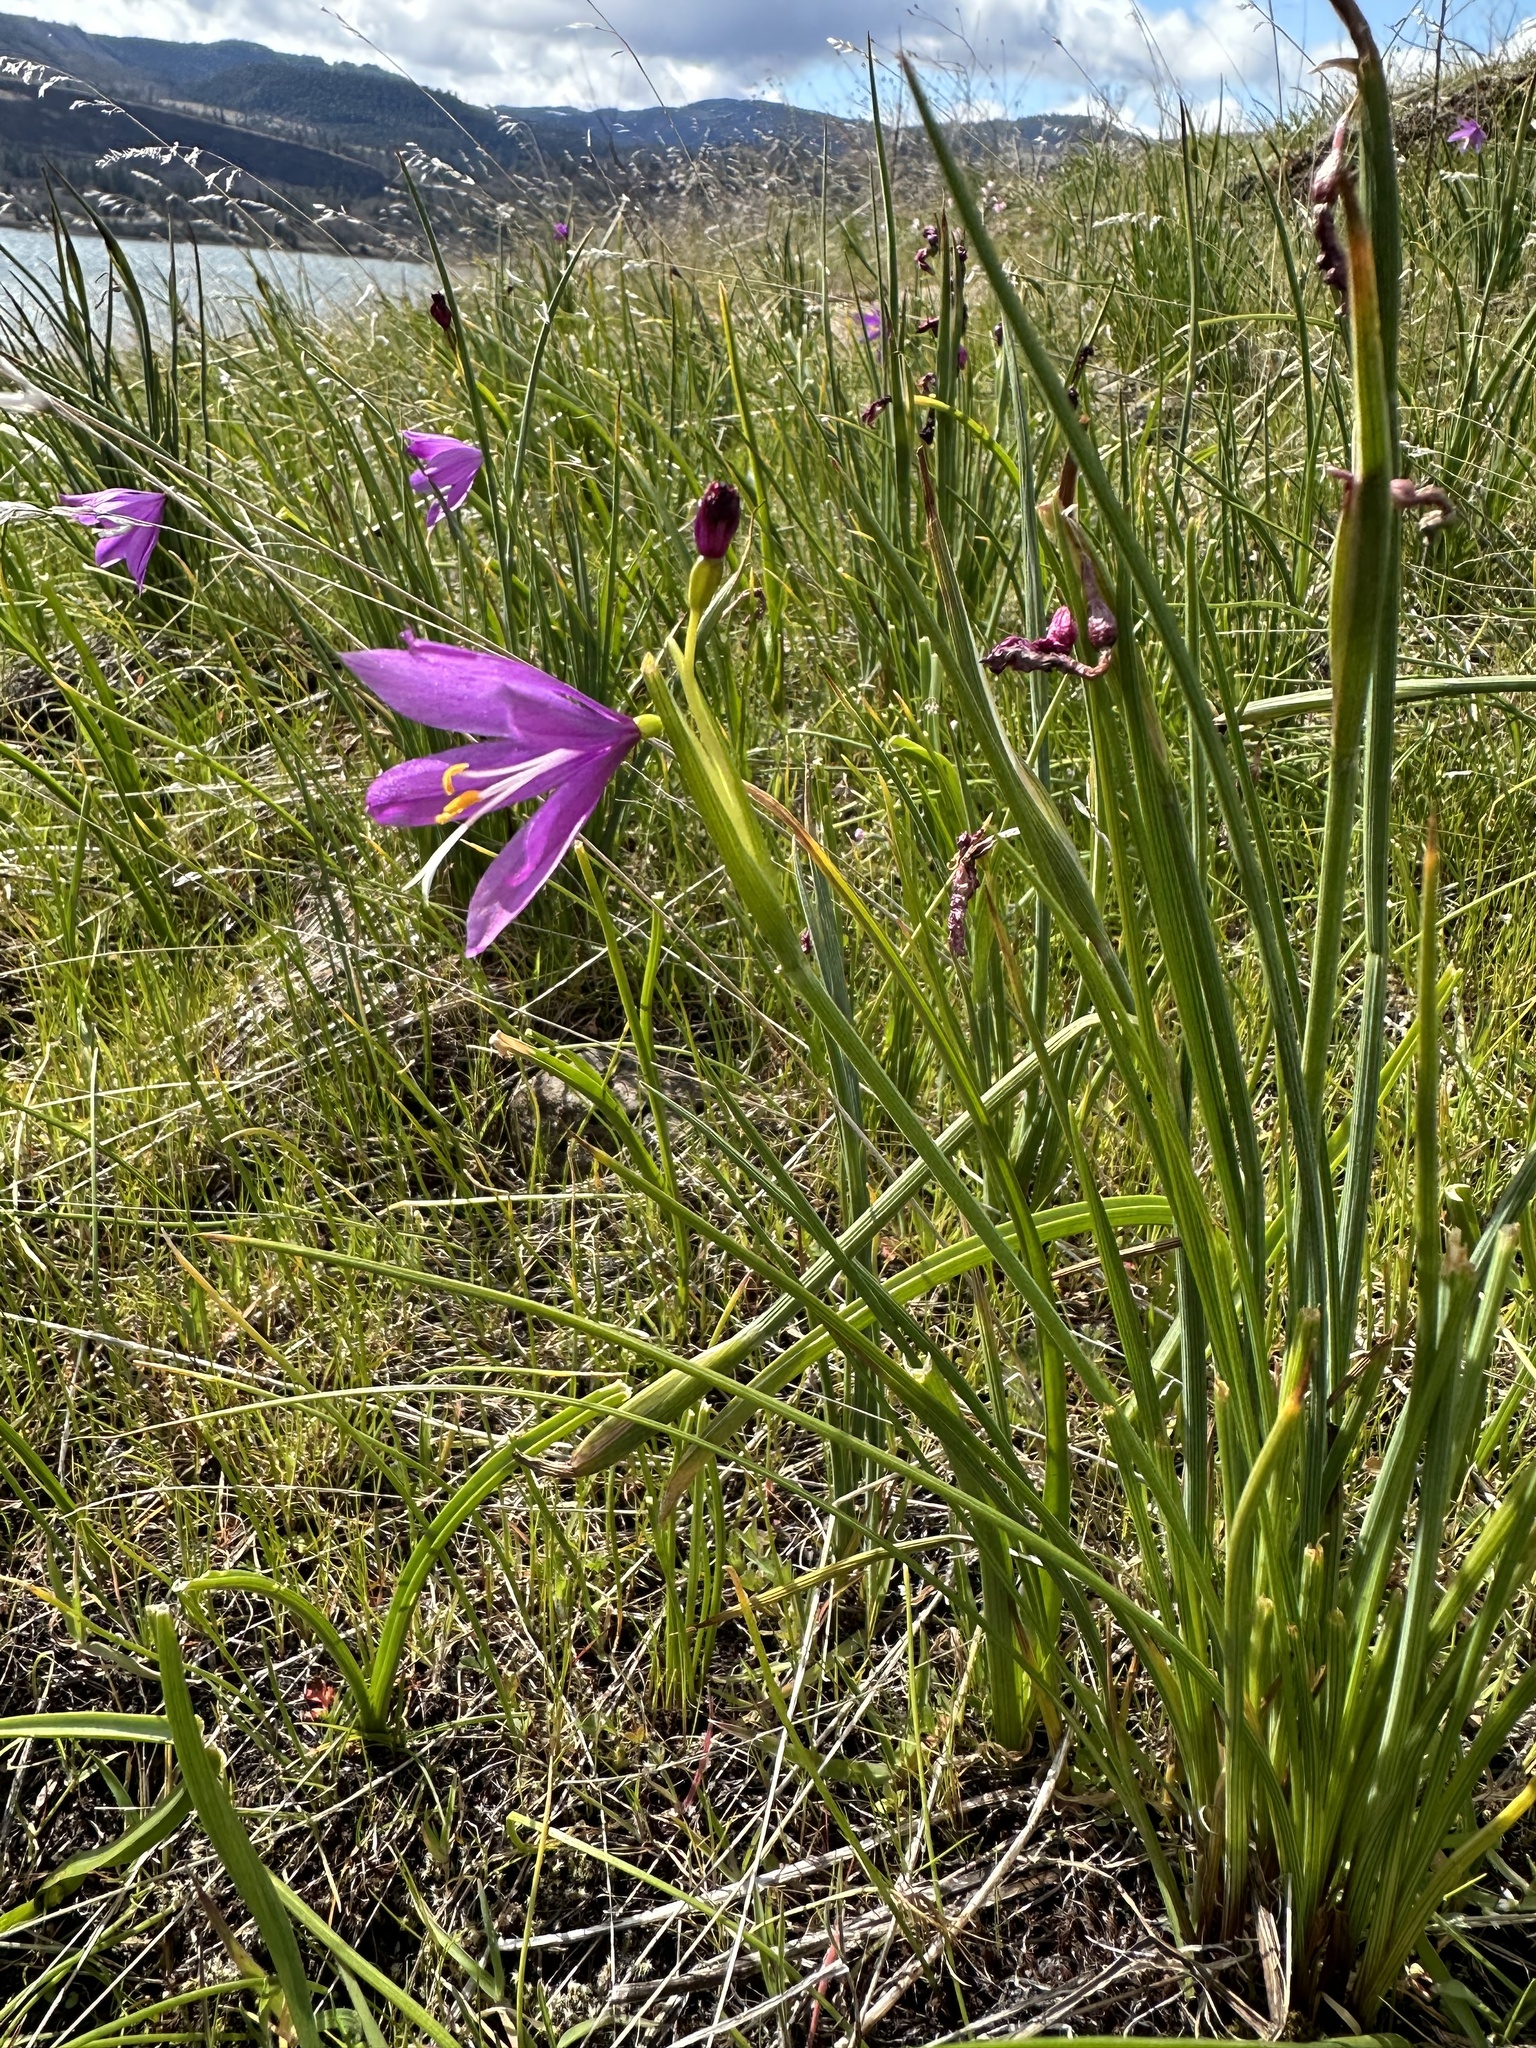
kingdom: Plantae
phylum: Tracheophyta
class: Liliopsida
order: Asparagales
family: Iridaceae
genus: Olsynium
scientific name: Olsynium douglasii
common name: Douglas' grasswidow
